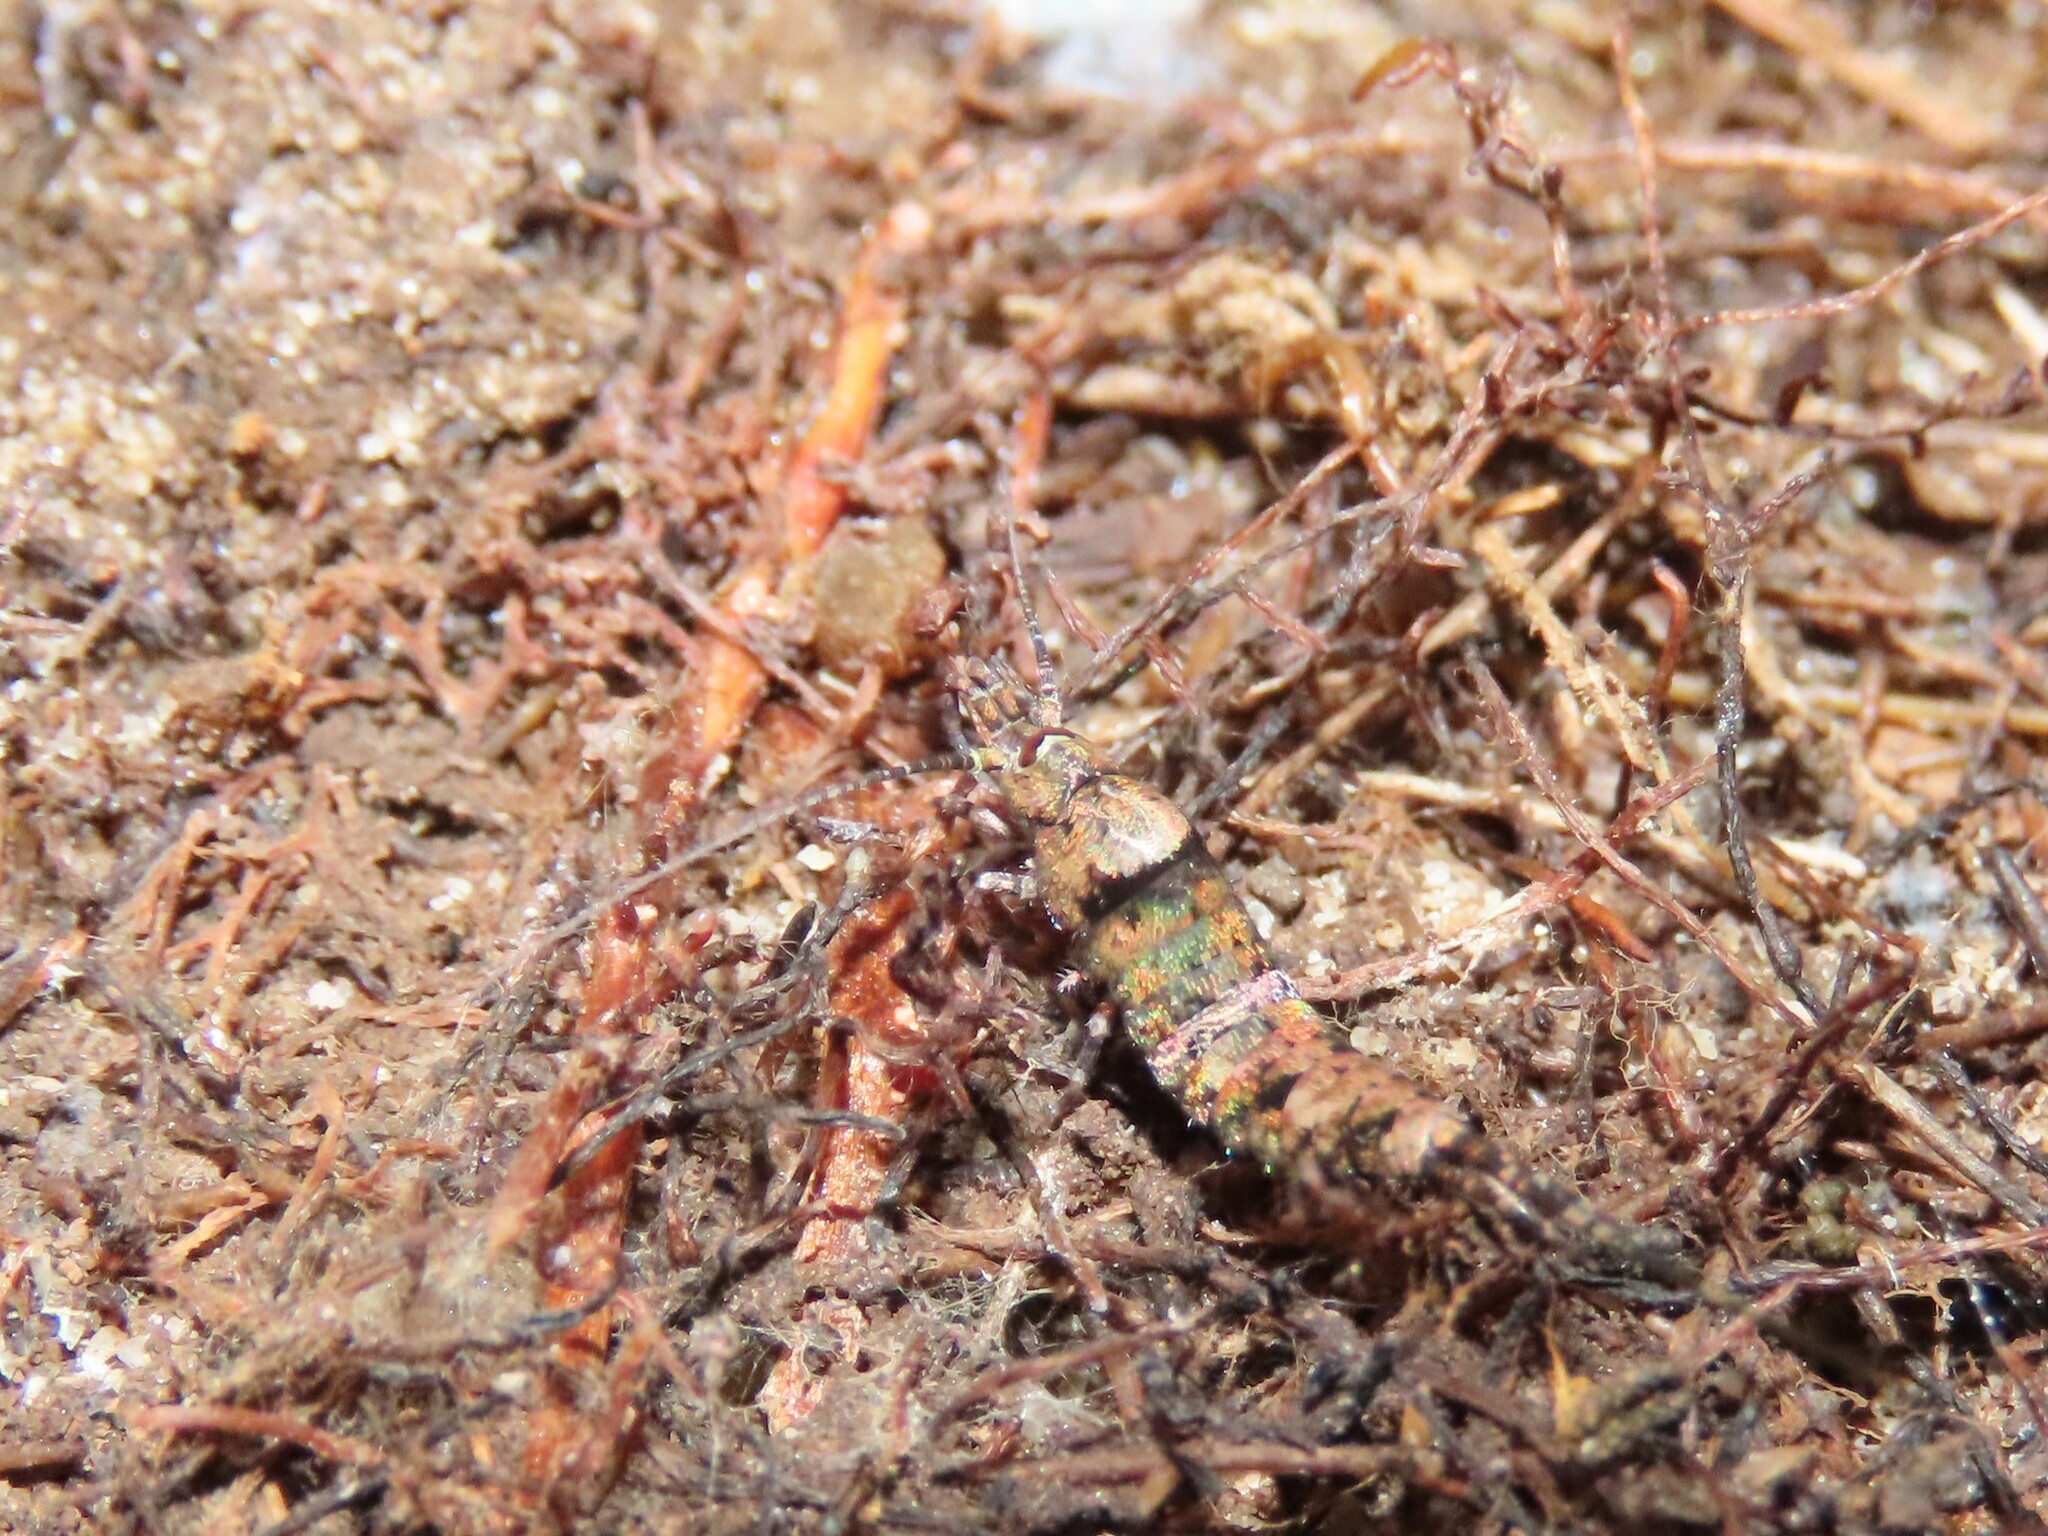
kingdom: Animalia
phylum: Arthropoda
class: Insecta
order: Archaeognatha
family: Machilidae
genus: Trigoniophthalmus
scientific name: Trigoniophthalmus alternatus
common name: Jumping bristletail
